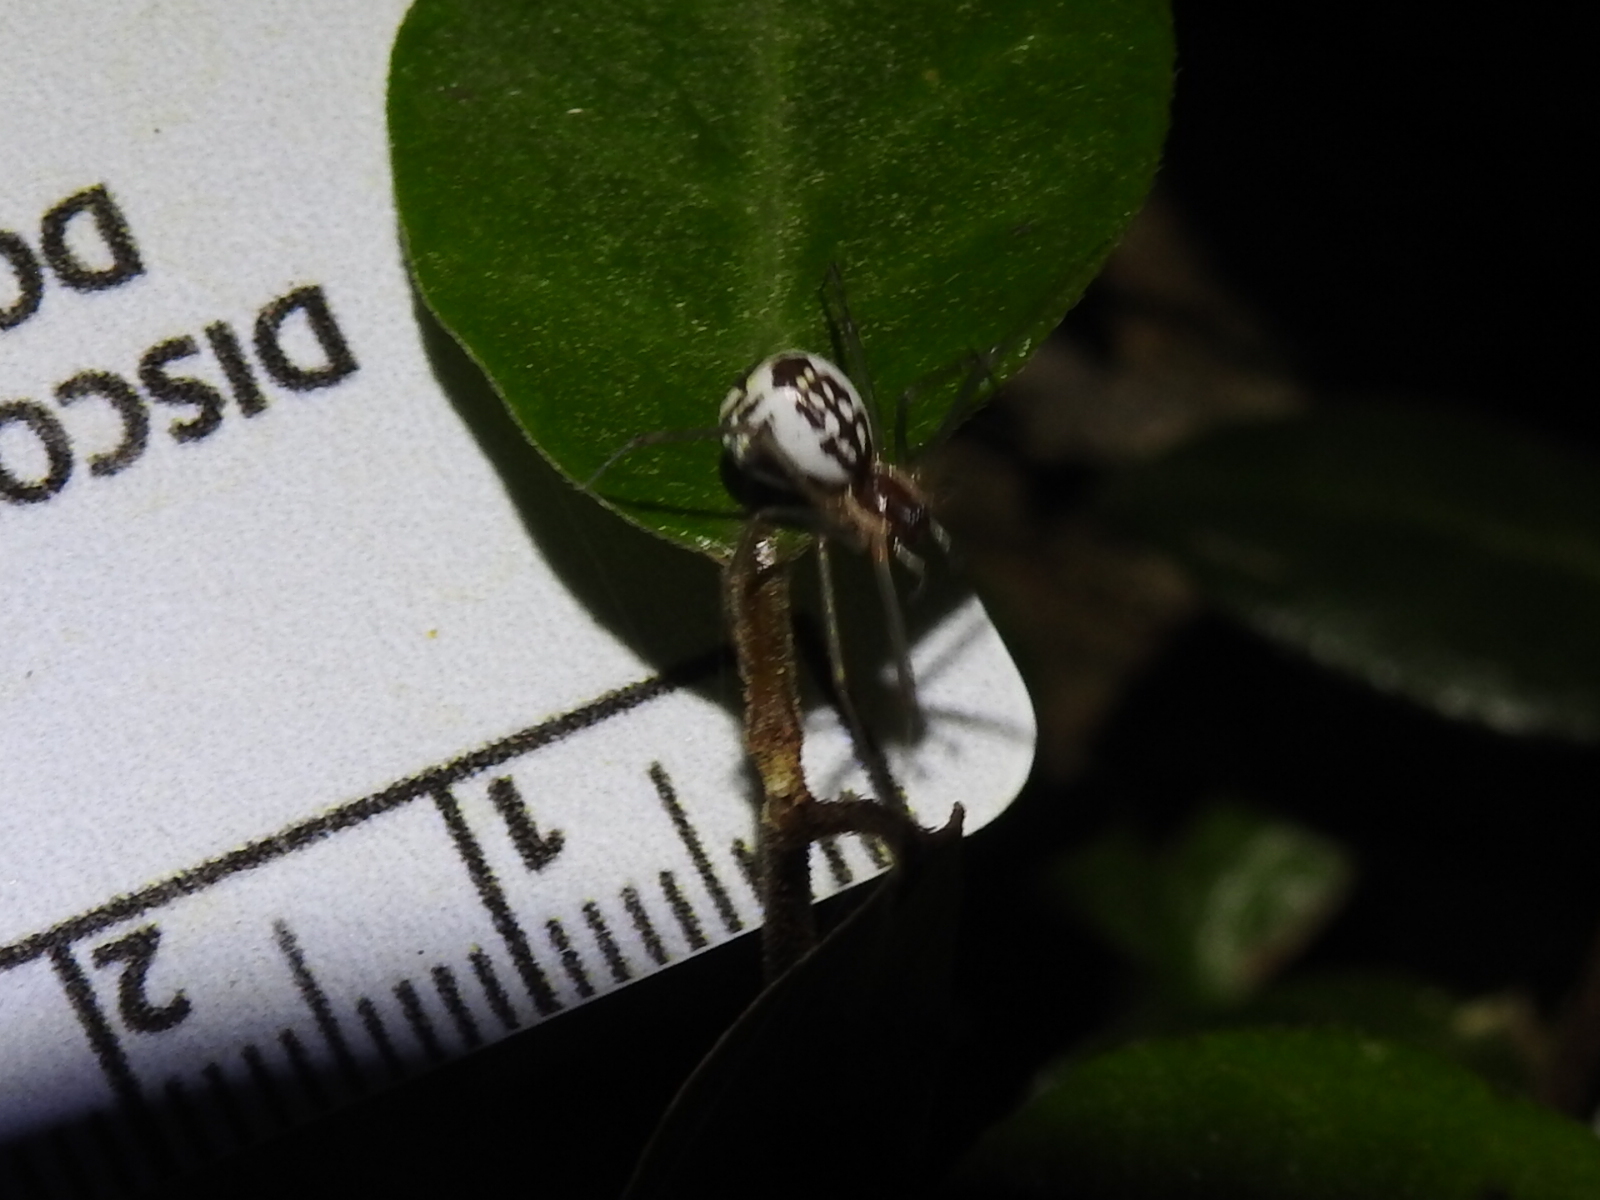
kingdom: Animalia
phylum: Arthropoda
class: Arachnida
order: Araneae
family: Linyphiidae
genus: Neriene
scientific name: Neriene radiata
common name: Filmy dome spider
